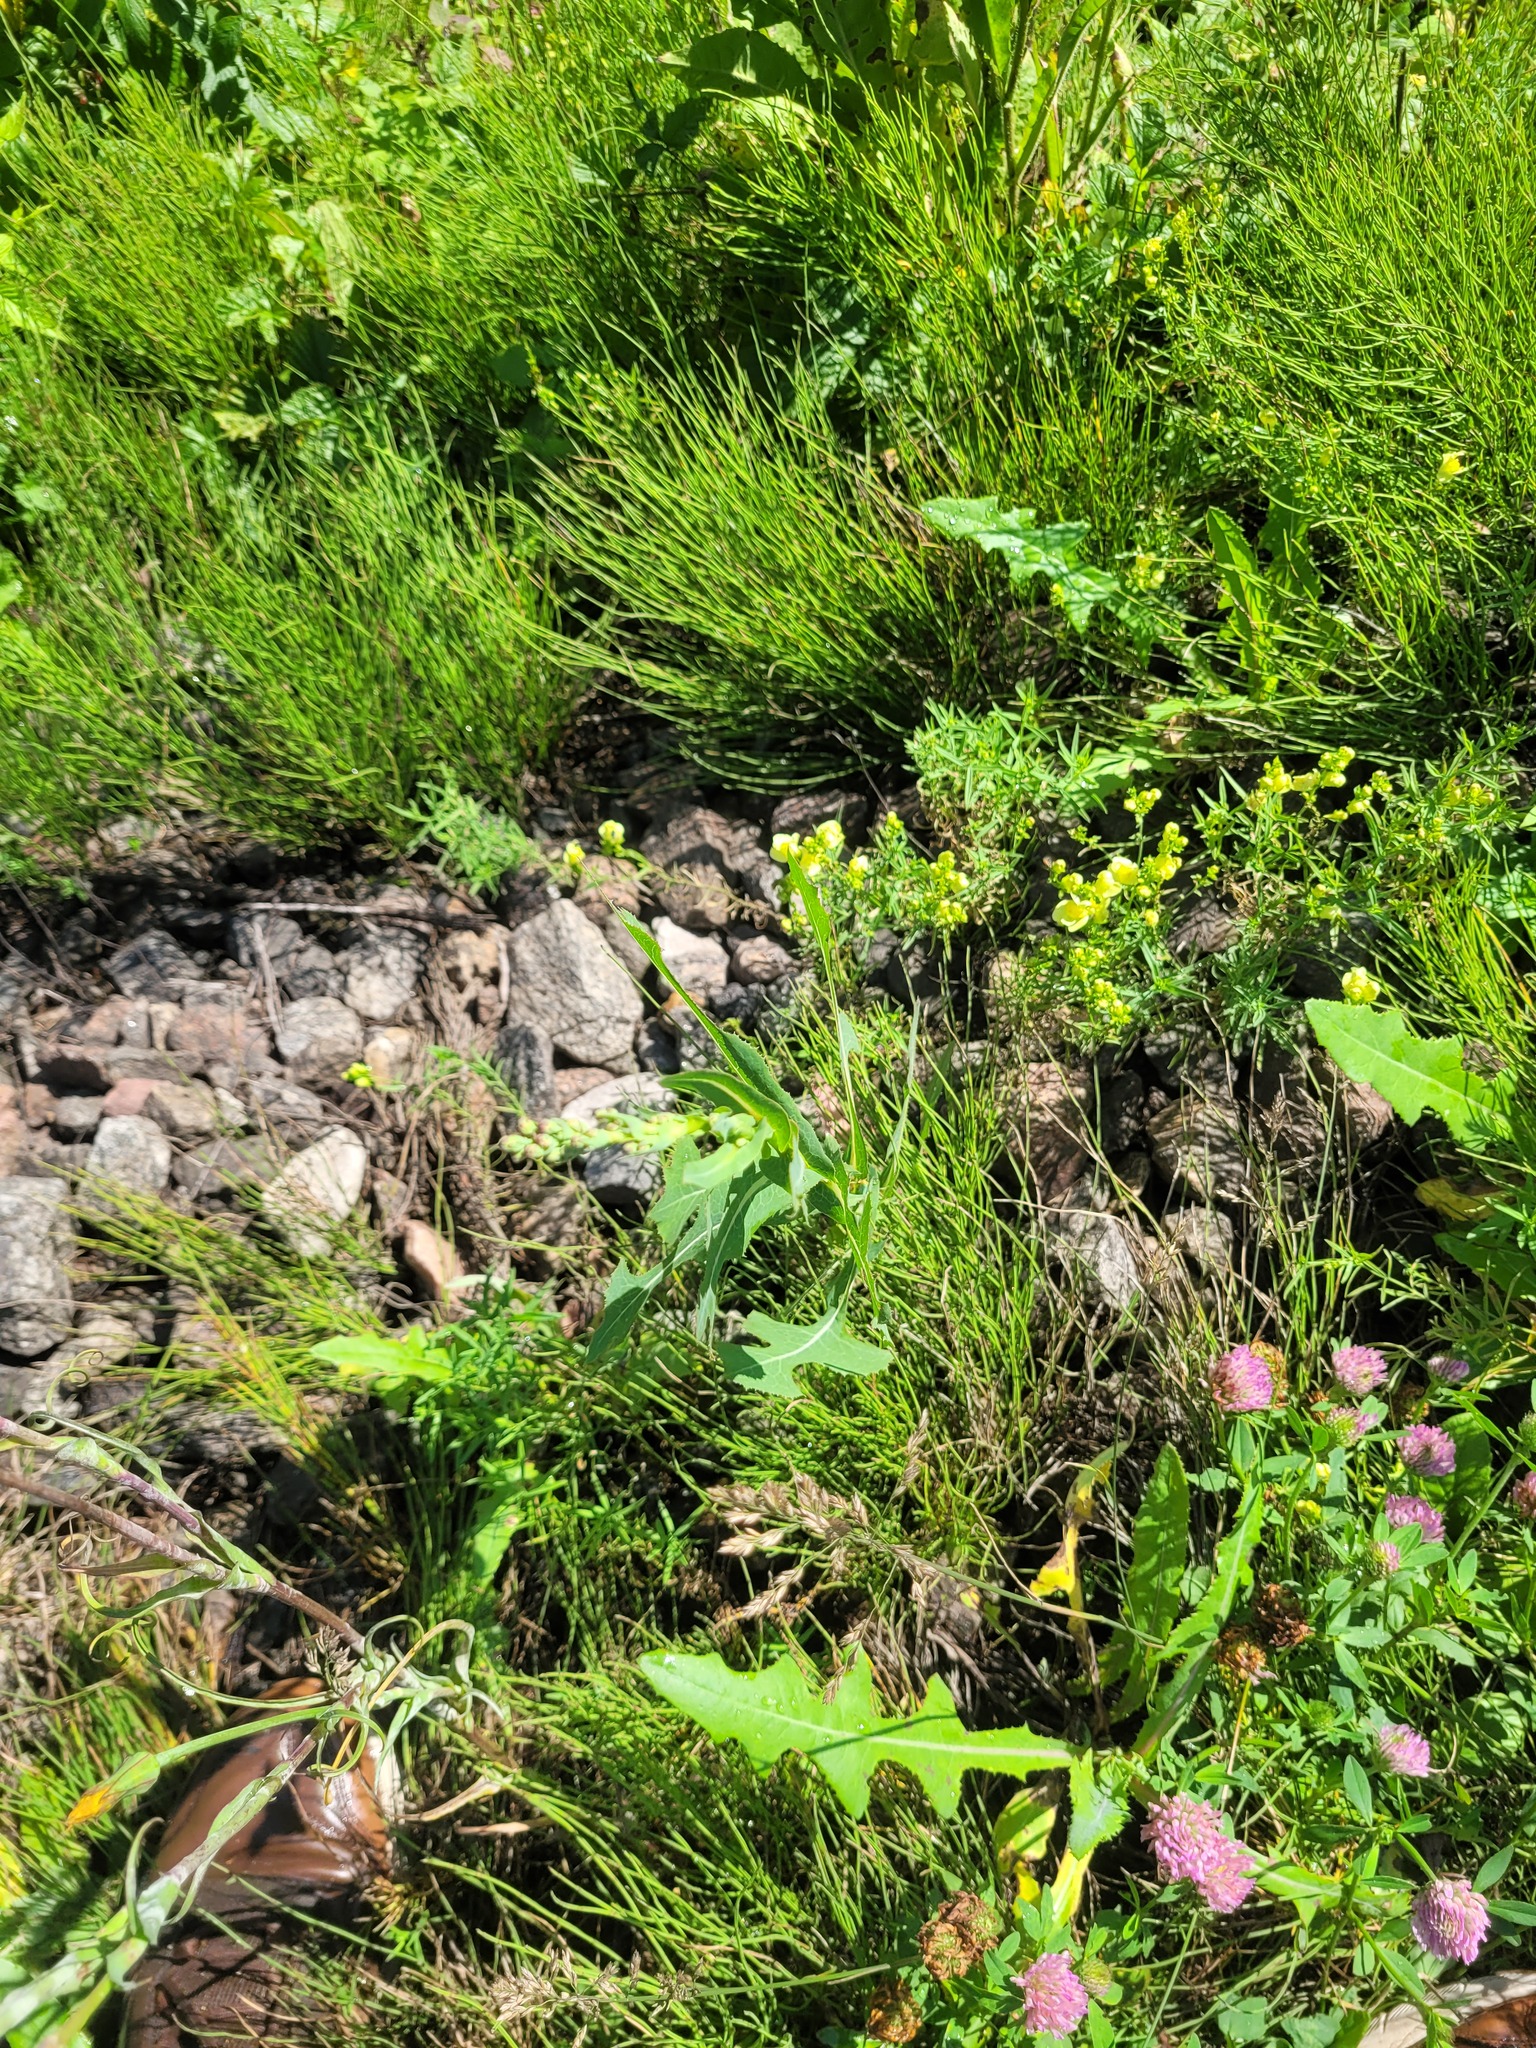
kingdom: Plantae
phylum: Tracheophyta
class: Magnoliopsida
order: Asterales
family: Asteraceae
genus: Lactuca
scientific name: Lactuca serriola
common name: Prickly lettuce
